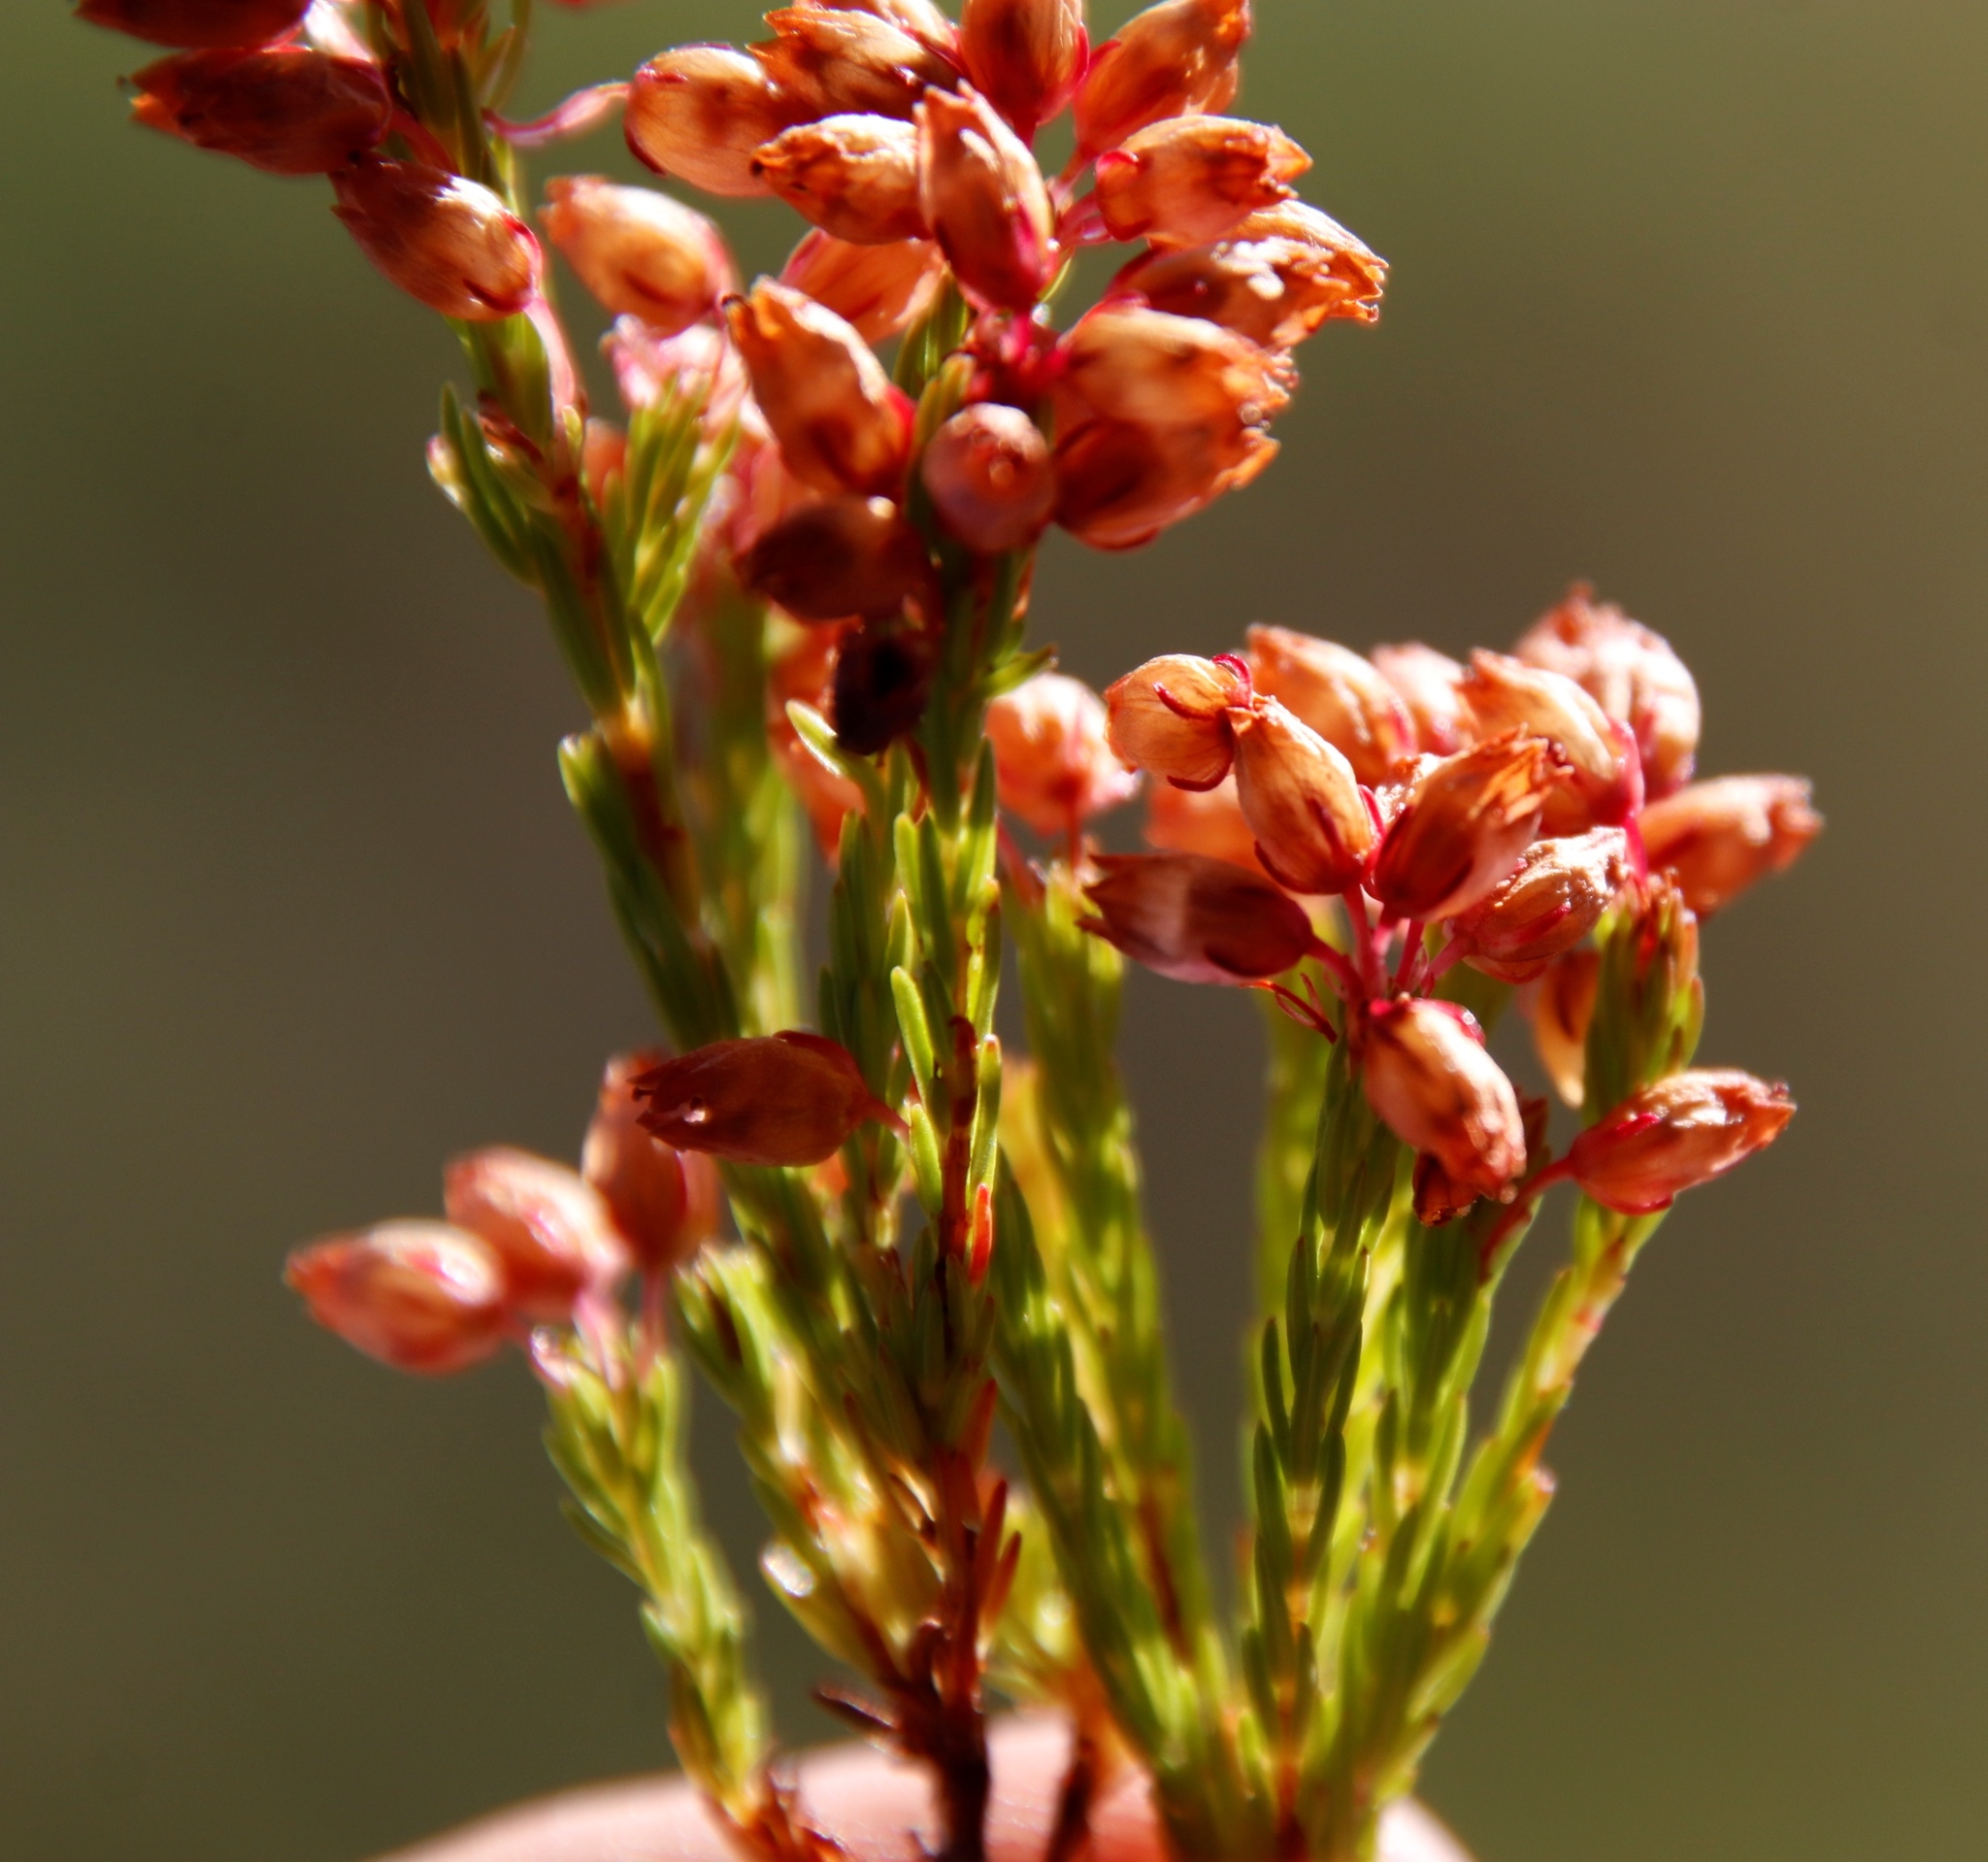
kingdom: Plantae
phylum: Tracheophyta
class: Magnoliopsida
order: Ericales
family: Ericaceae
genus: Erica
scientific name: Erica laeta
